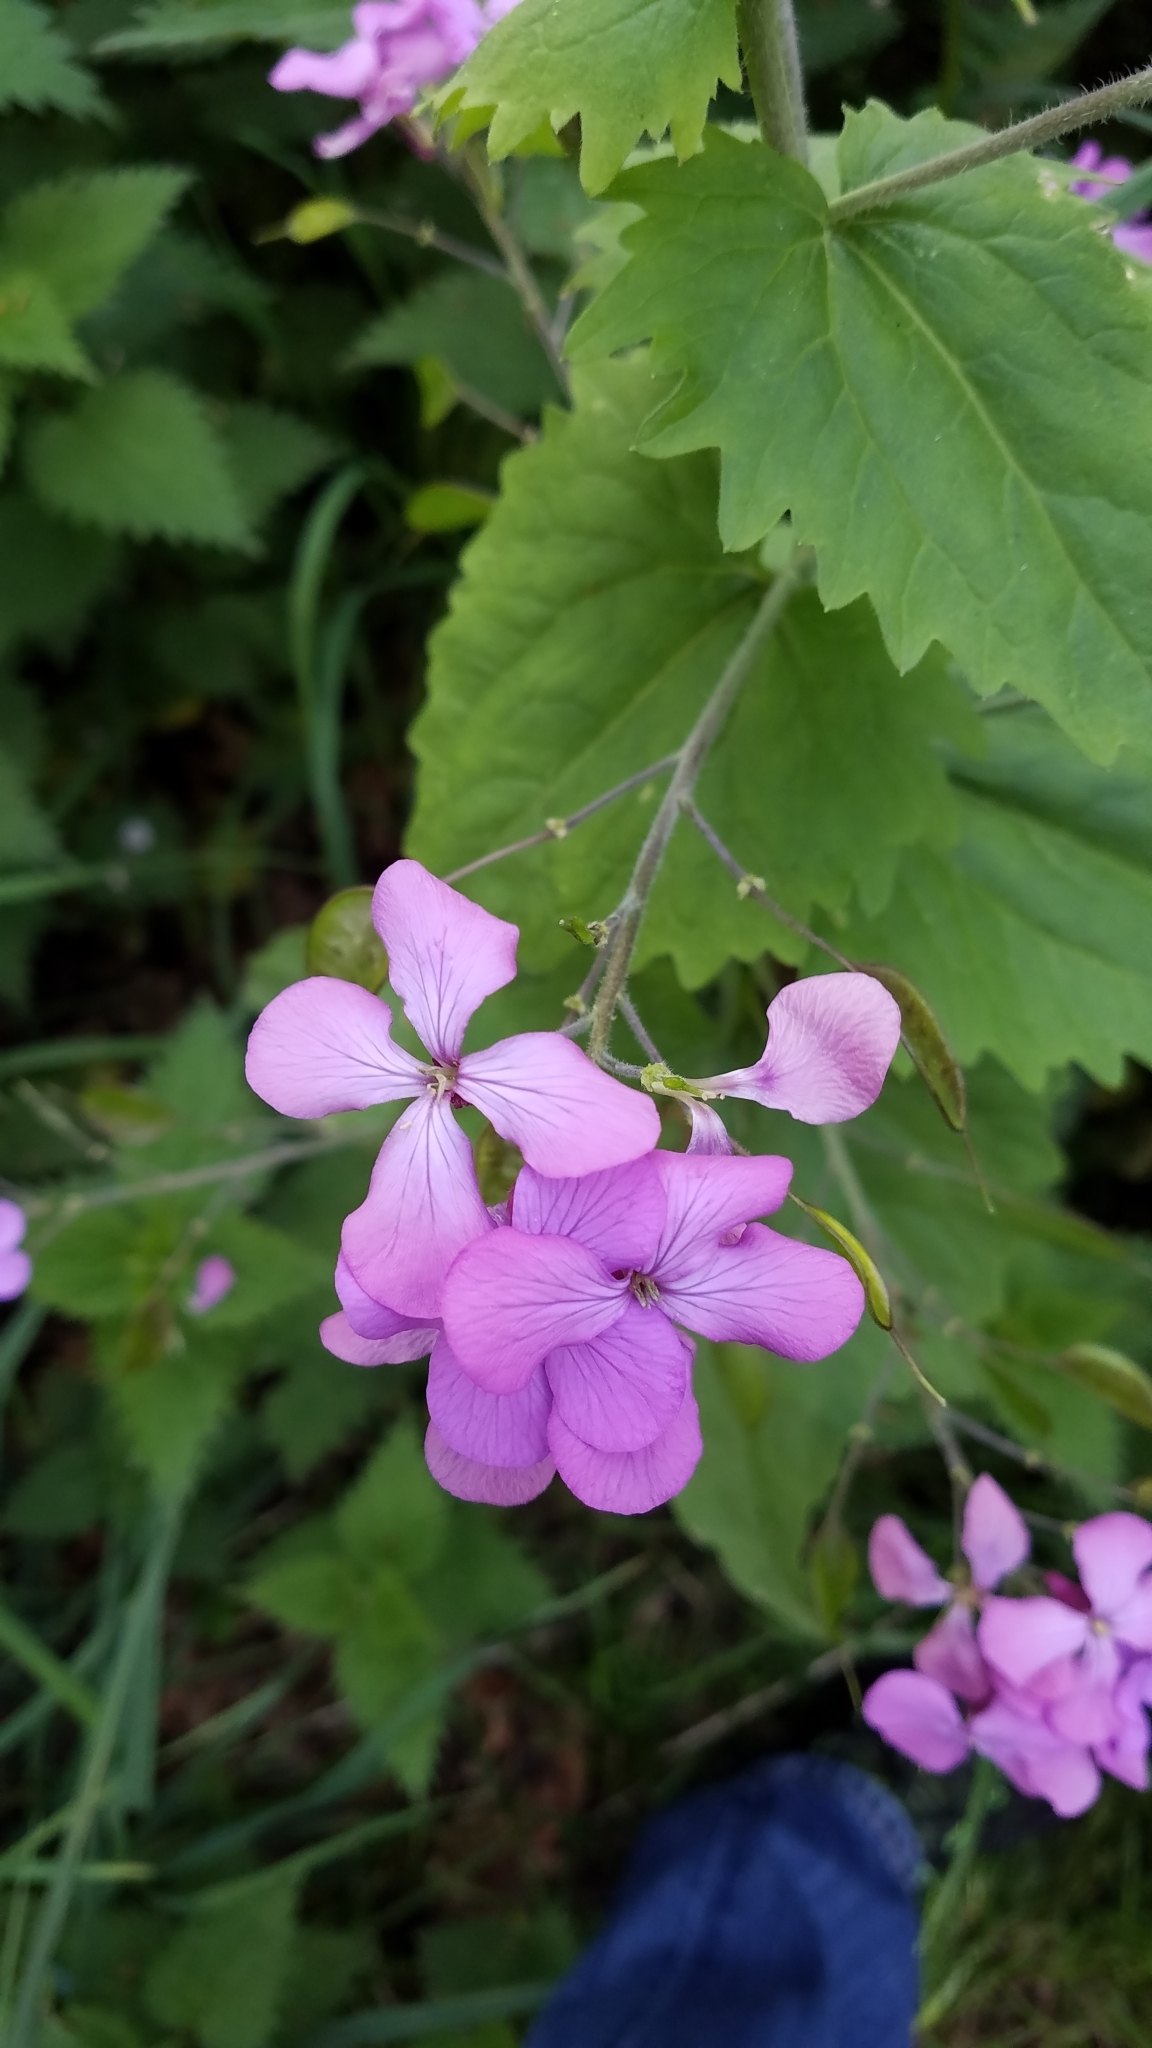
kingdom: Plantae
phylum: Tracheophyta
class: Magnoliopsida
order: Brassicales
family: Brassicaceae
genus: Lunaria
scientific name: Lunaria annua
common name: Honesty
